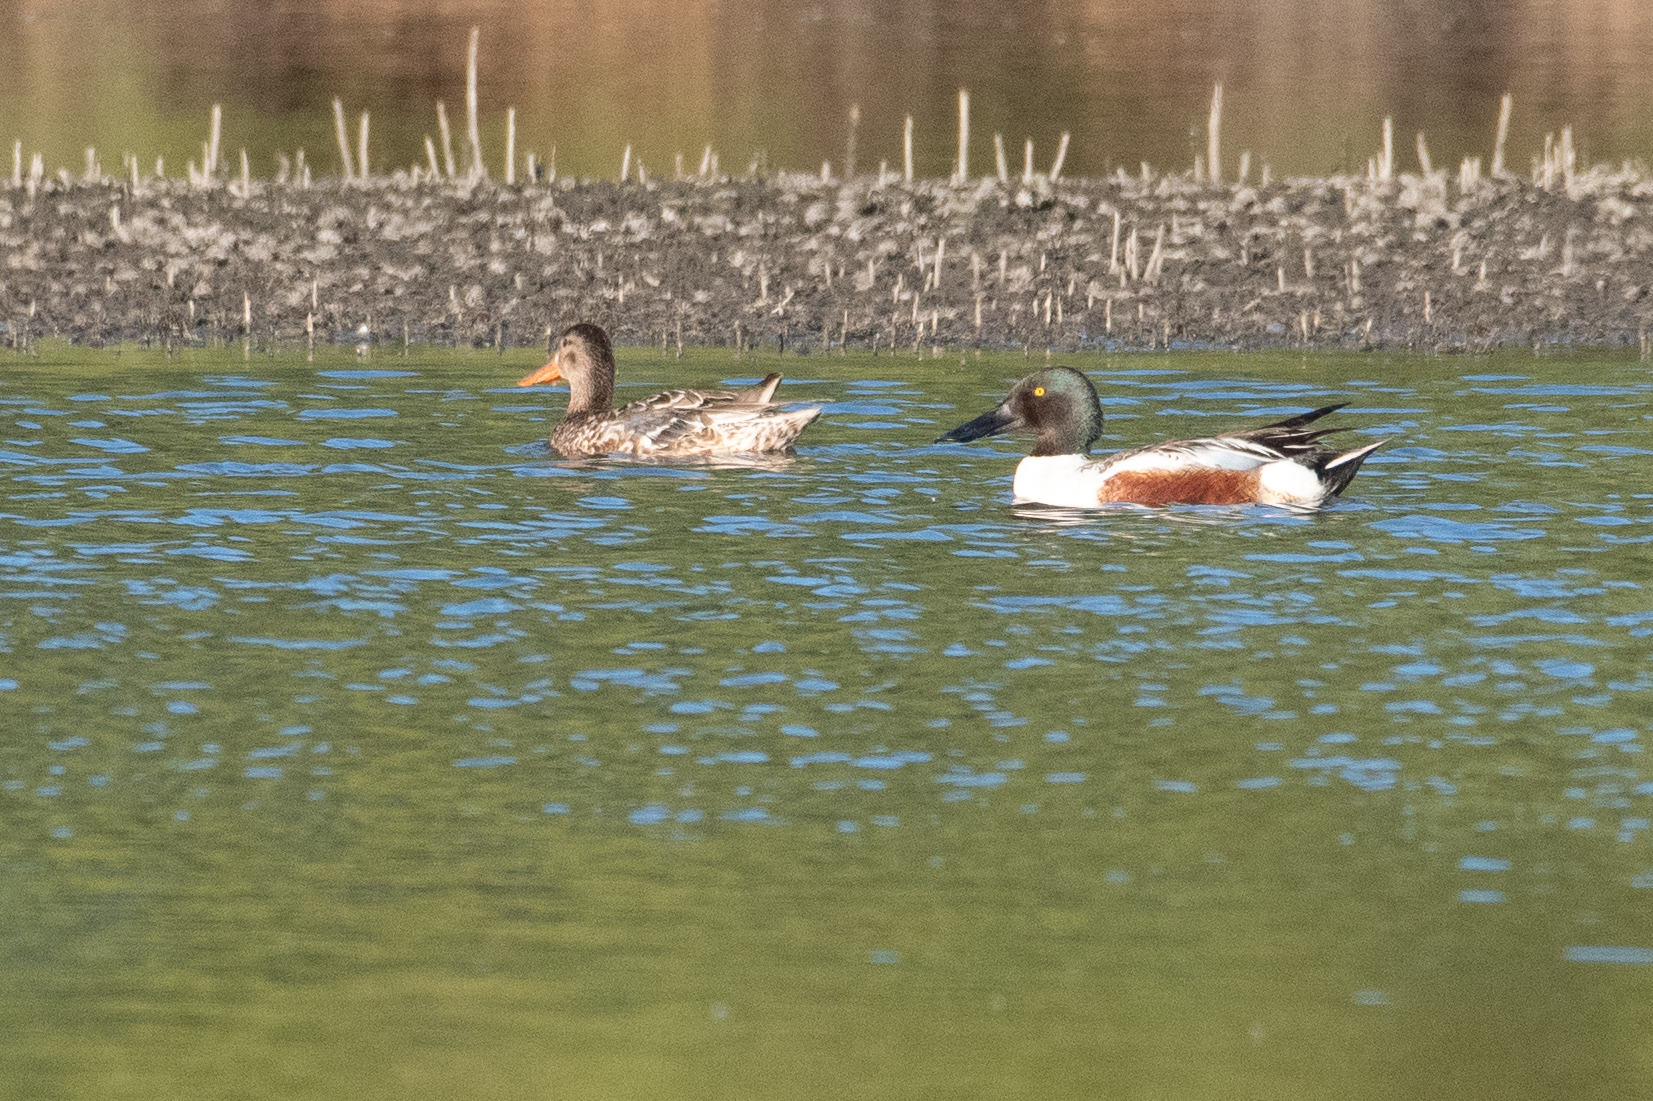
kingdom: Animalia
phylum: Chordata
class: Aves
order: Anseriformes
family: Anatidae
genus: Spatula
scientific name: Spatula clypeata
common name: Northern shoveler
